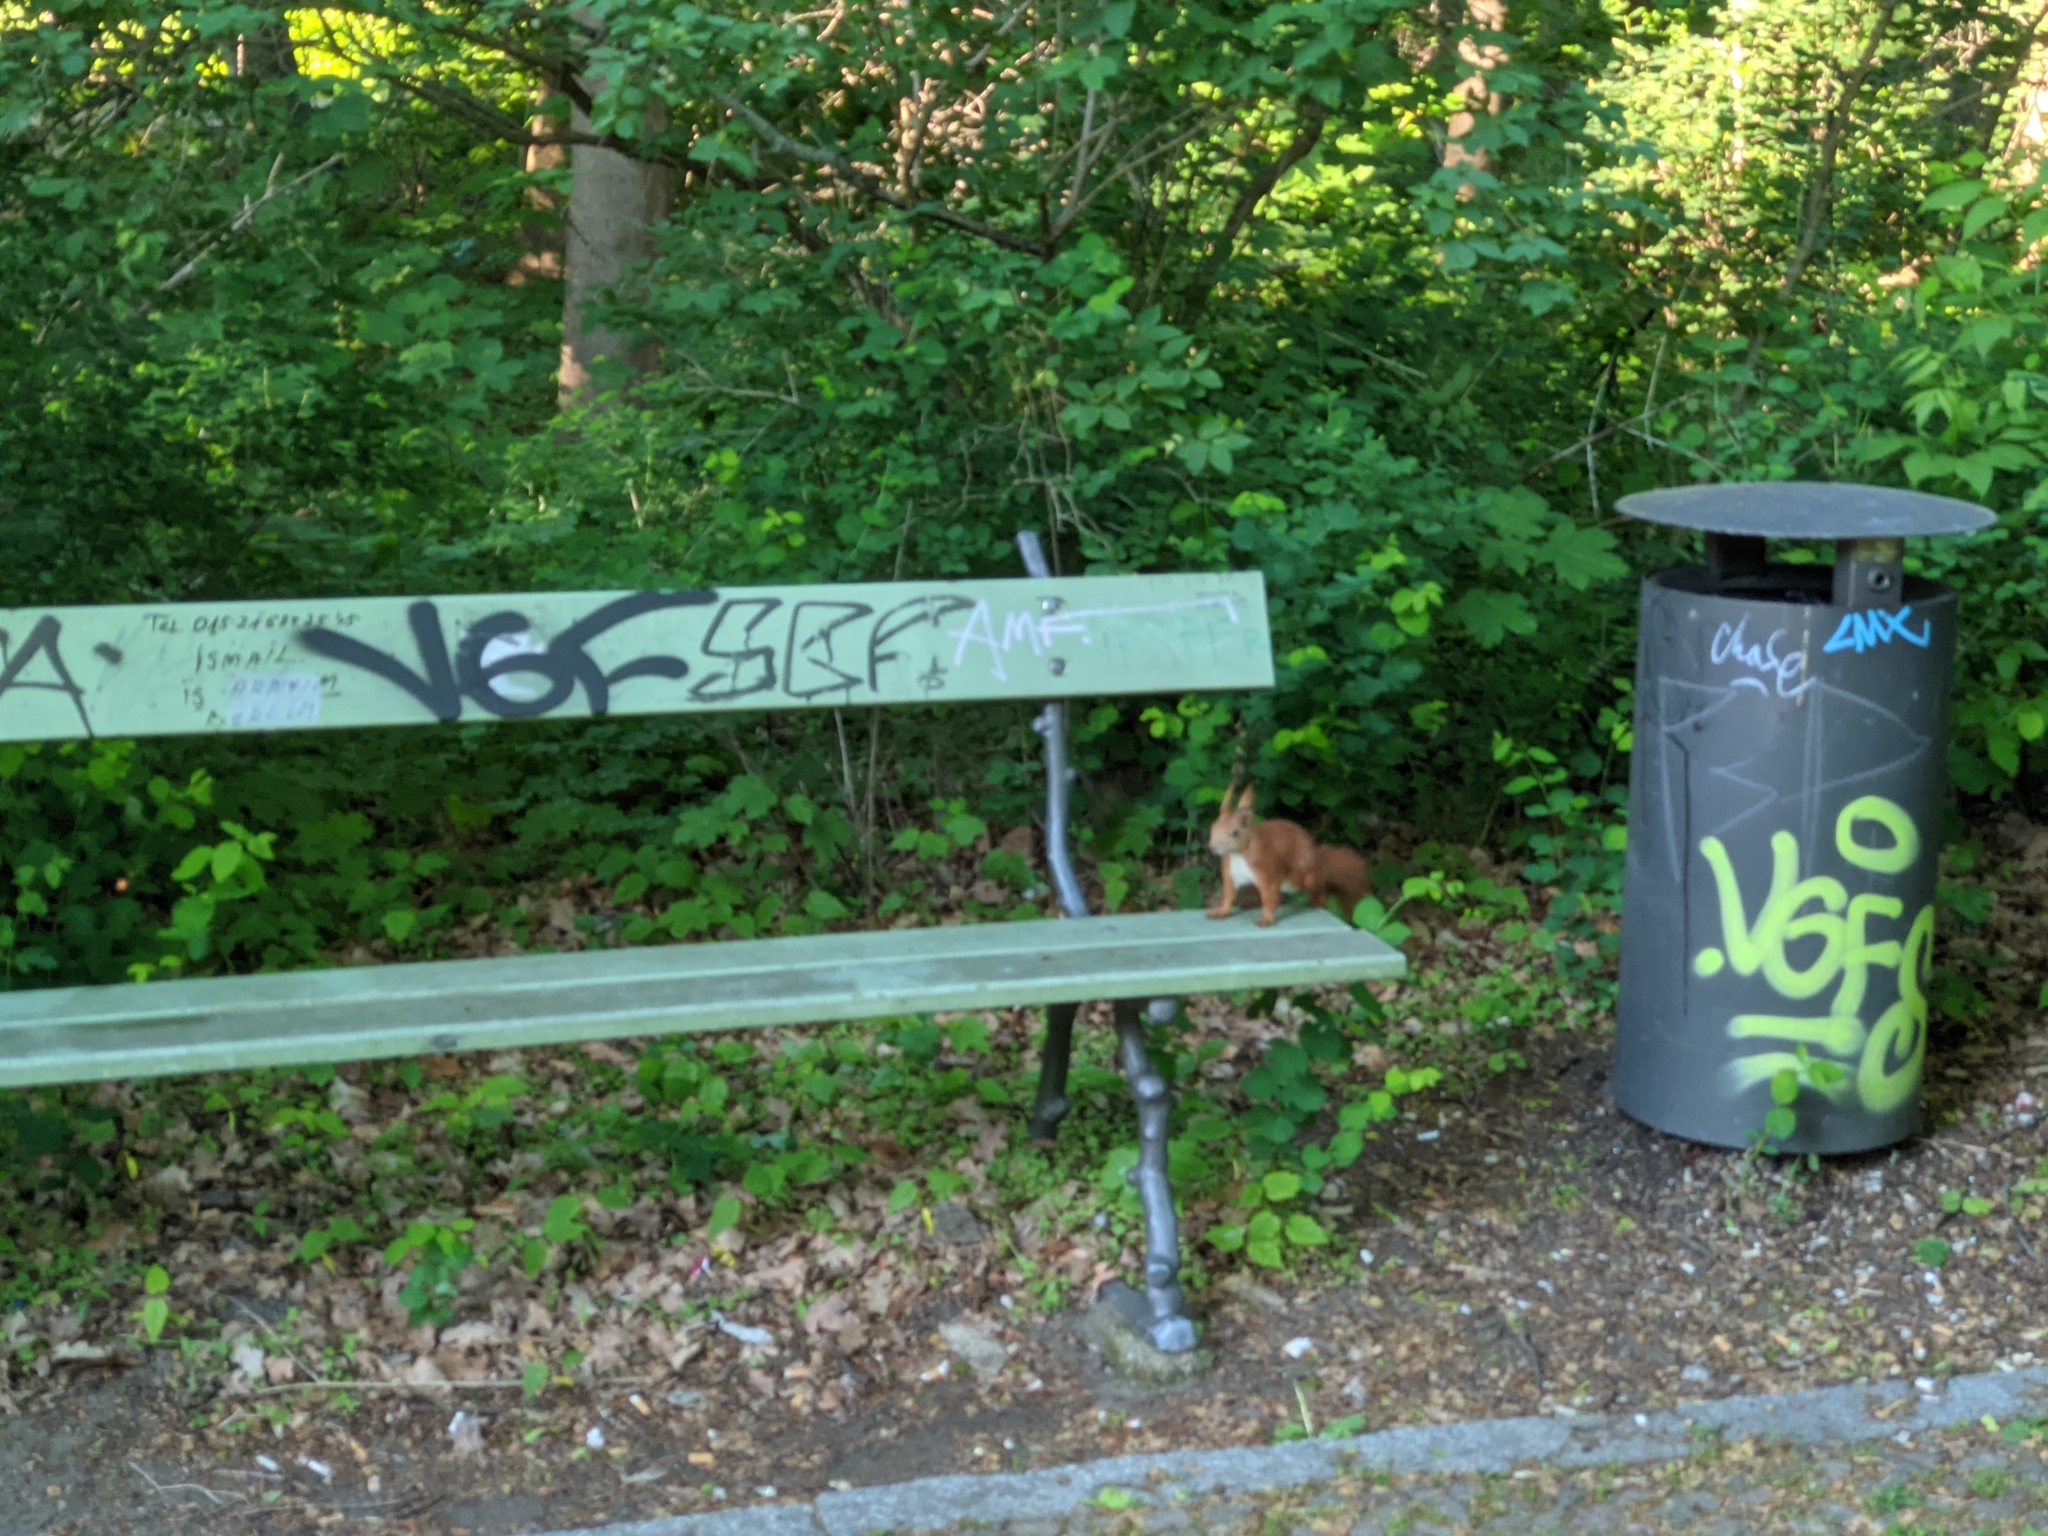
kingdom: Animalia
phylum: Chordata
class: Mammalia
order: Rodentia
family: Sciuridae
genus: Sciurus
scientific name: Sciurus vulgaris
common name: Eurasian red squirrel
